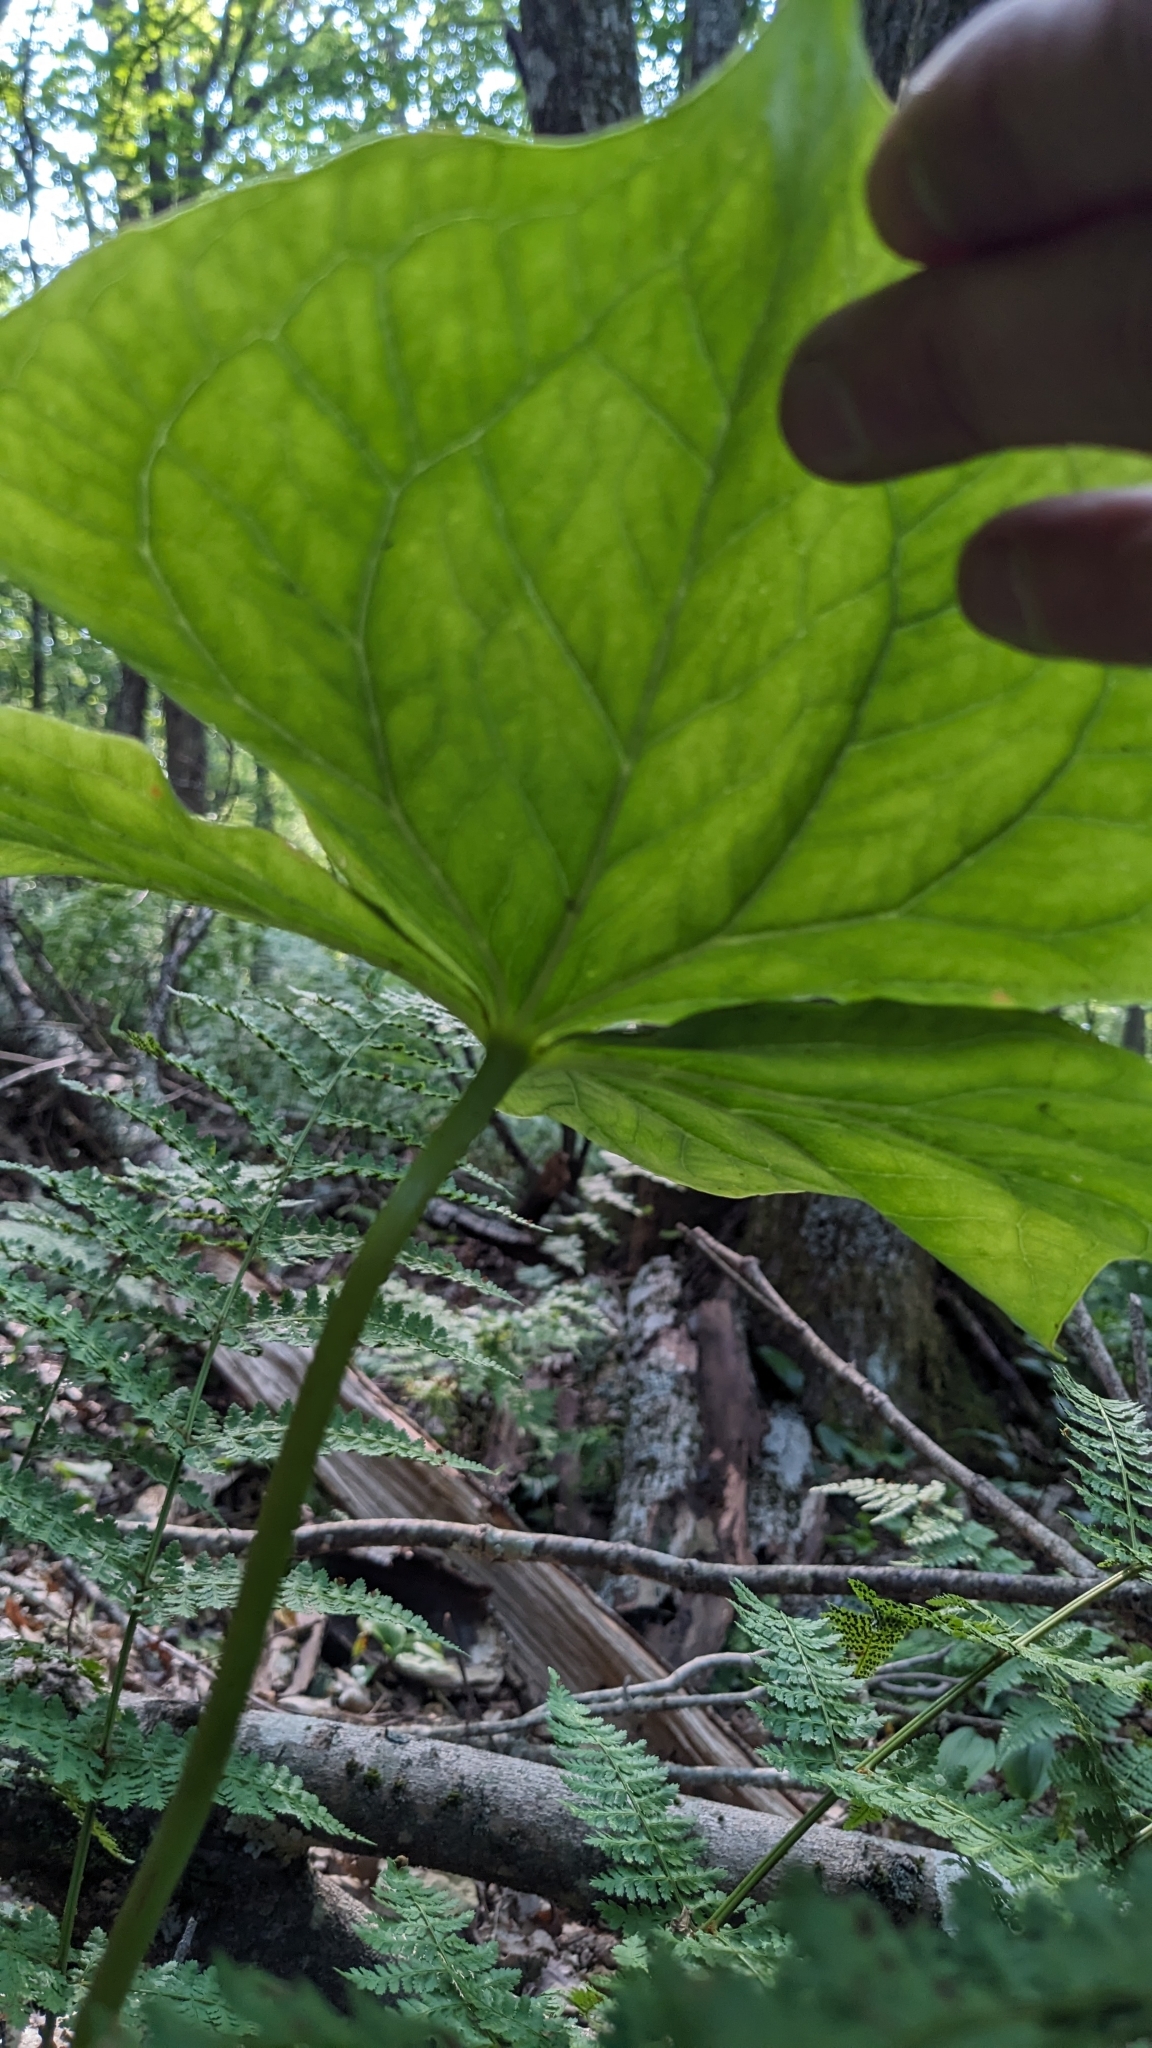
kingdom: Plantae
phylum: Tracheophyta
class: Liliopsida
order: Liliales
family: Melanthiaceae
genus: Trillium
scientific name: Trillium sulcatum
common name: Barksdale trillium
